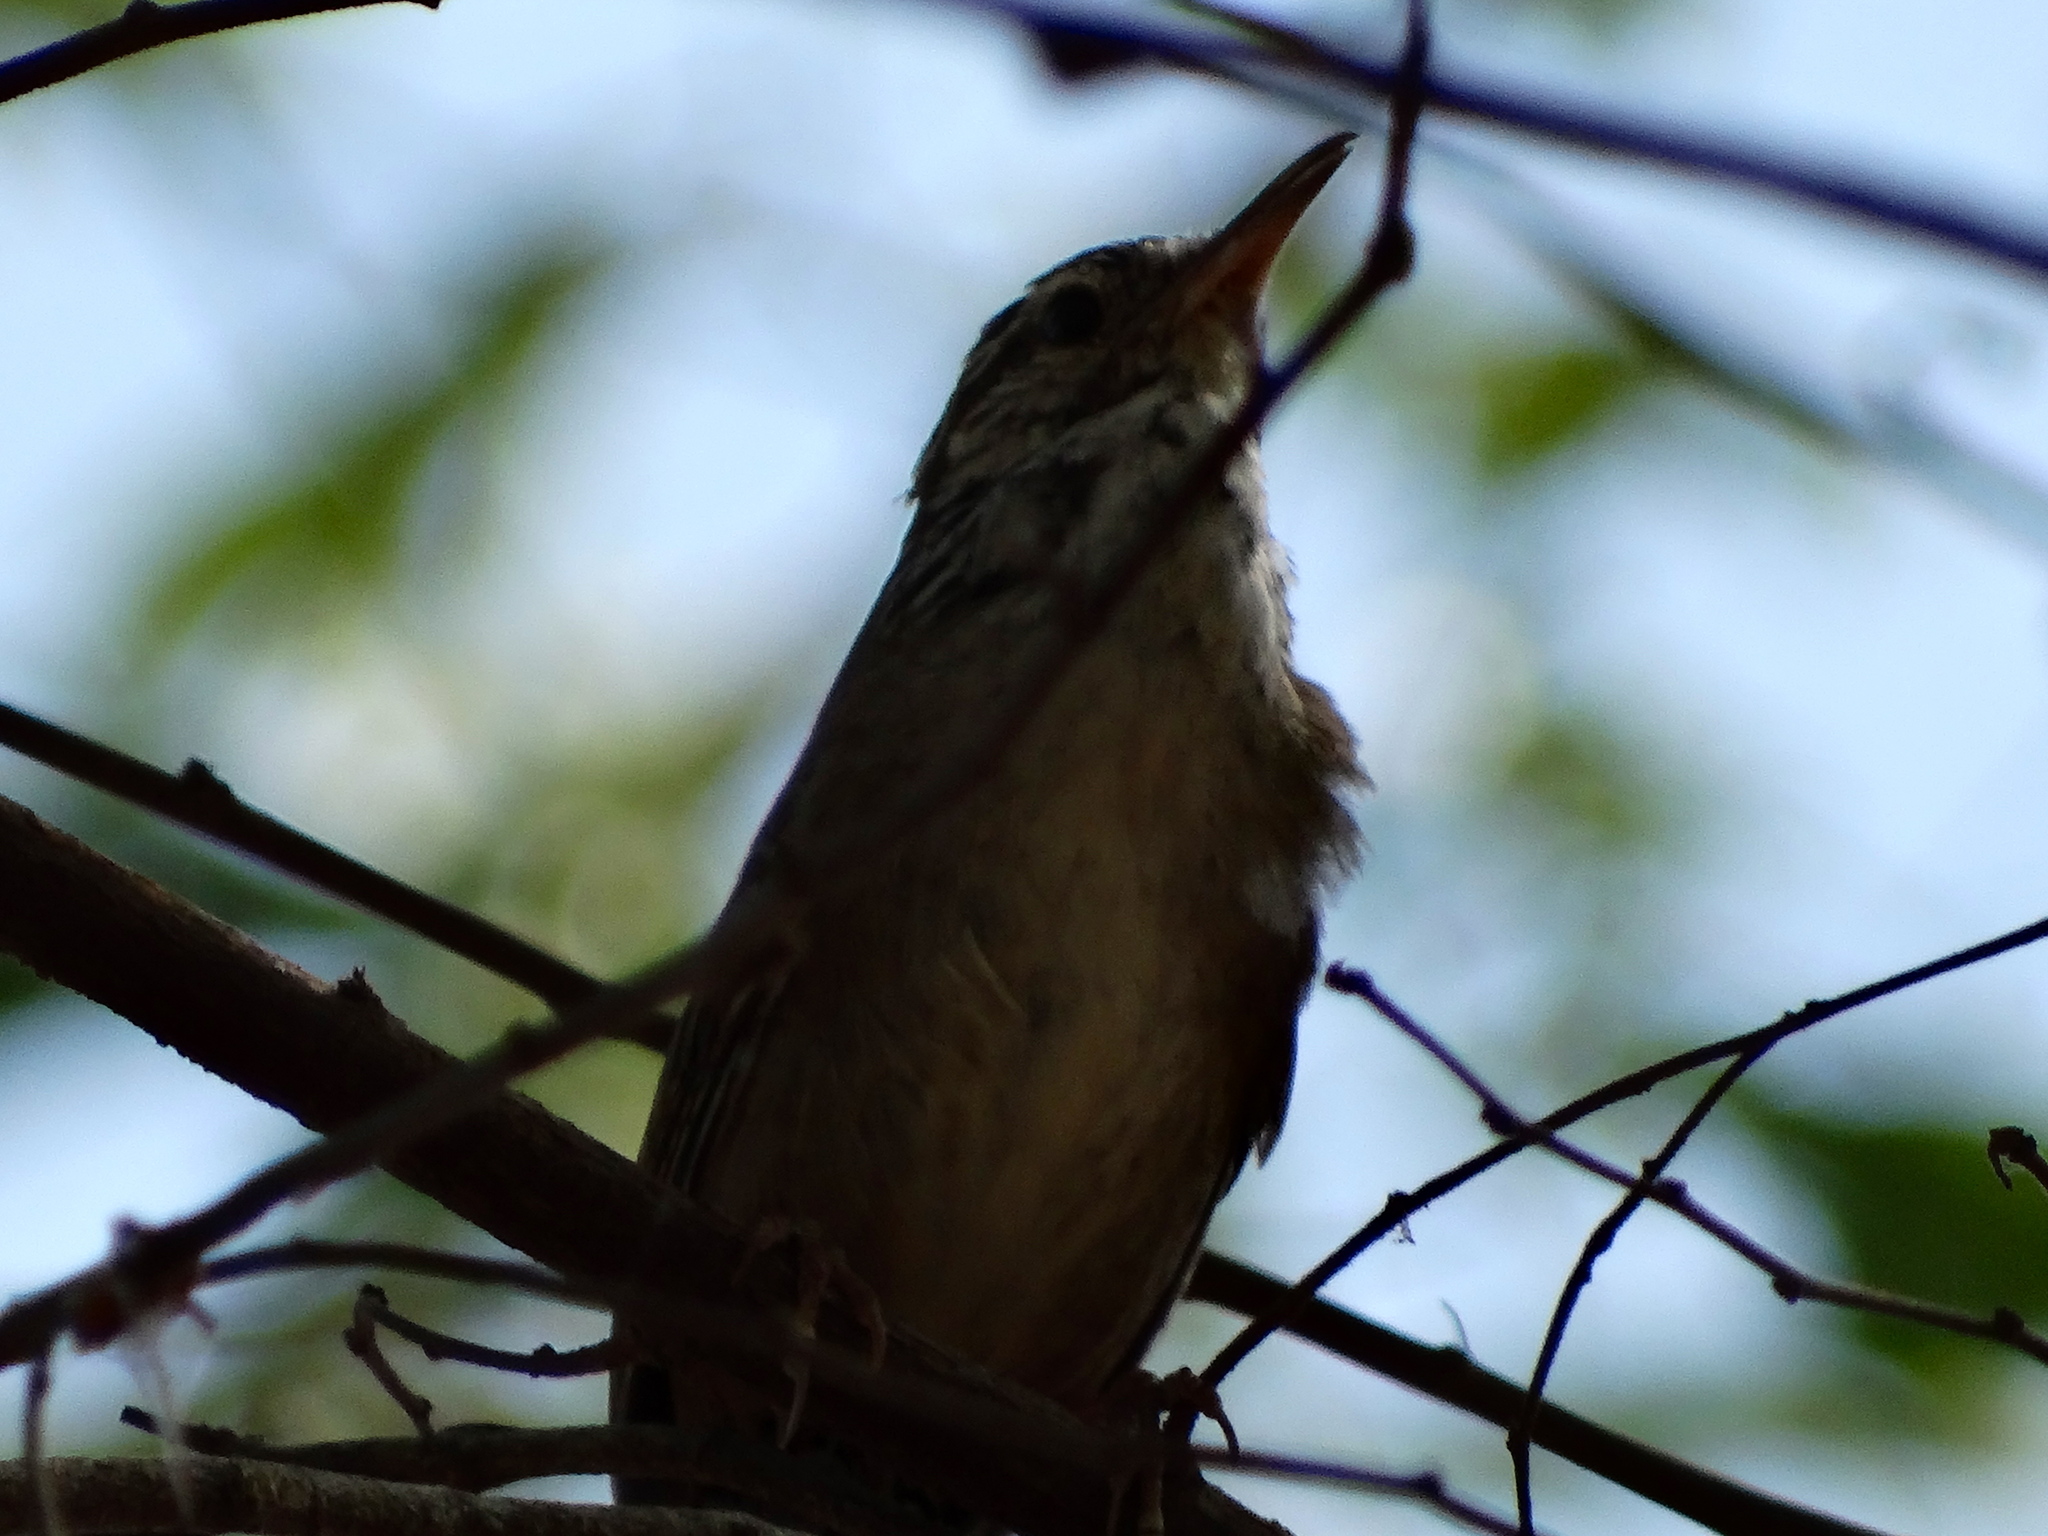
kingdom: Animalia
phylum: Chordata
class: Aves
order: Passeriformes
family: Troglodytidae
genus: Thryophilus
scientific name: Thryophilus sinaloa
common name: Sinaloa wren
